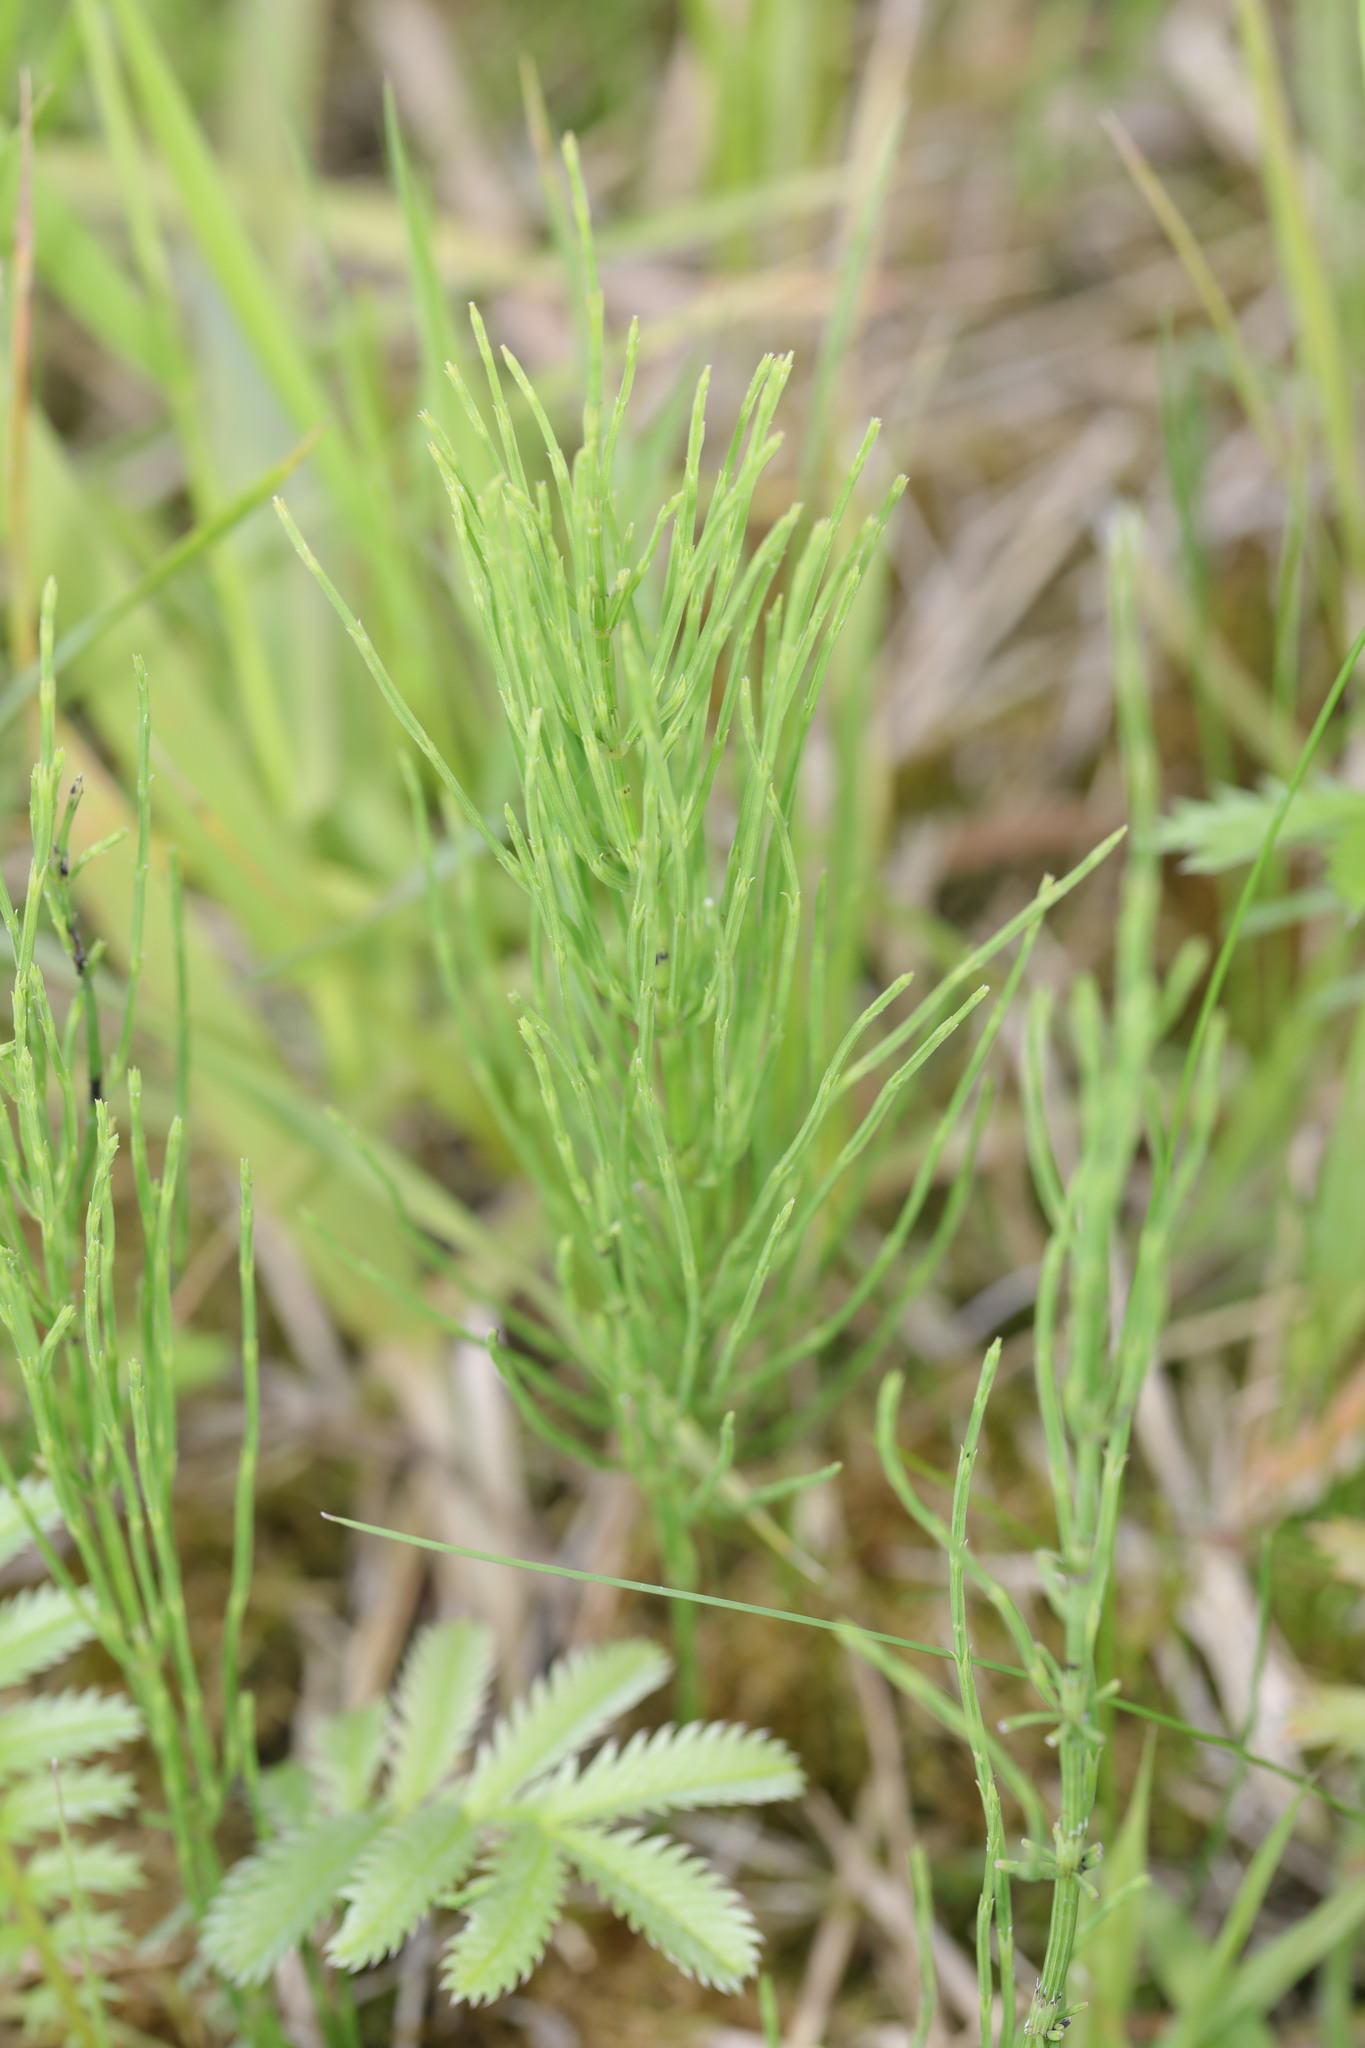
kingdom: Plantae
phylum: Tracheophyta
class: Polypodiopsida
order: Equisetales
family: Equisetaceae
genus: Equisetum
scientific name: Equisetum arvense
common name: Field horsetail
